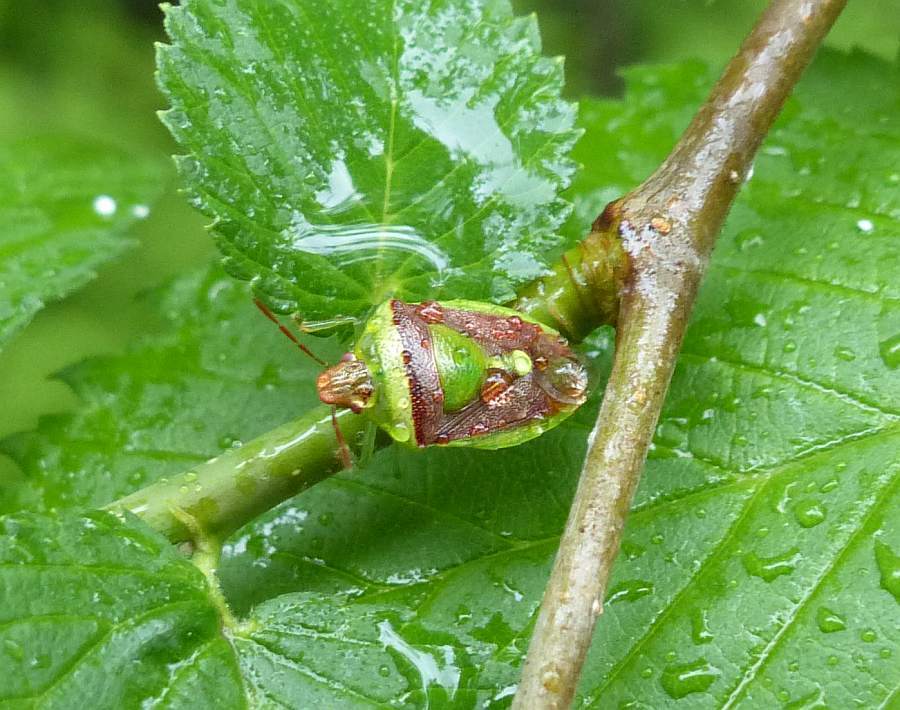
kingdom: Animalia
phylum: Arthropoda
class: Insecta
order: Hemiptera
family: Pentatomidae
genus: Banasa
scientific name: Banasa dimidiata
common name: Green burgundy stink bug
